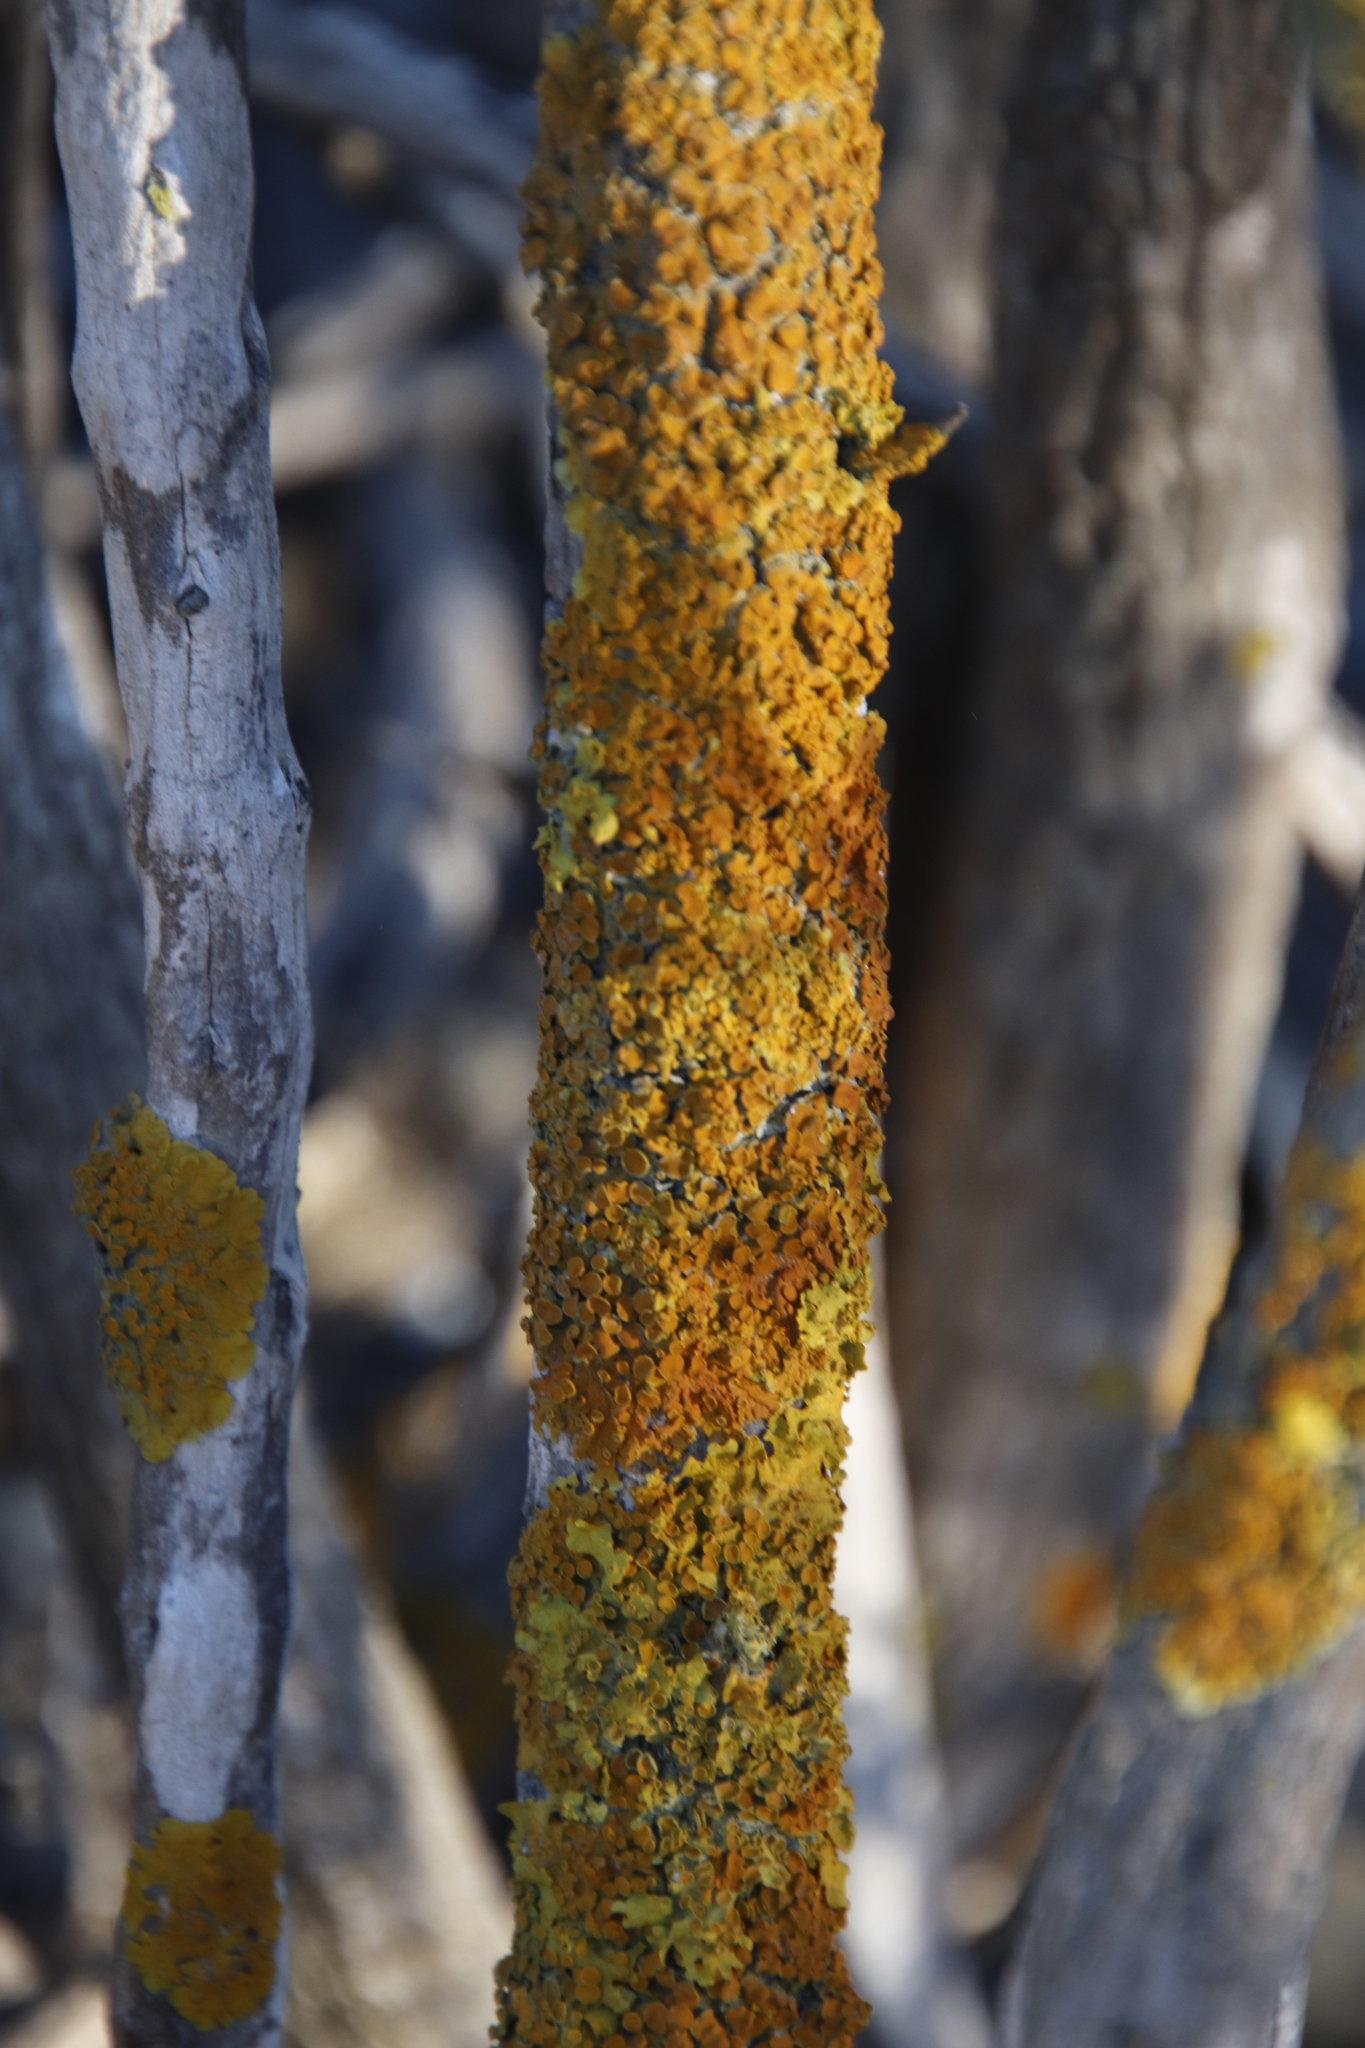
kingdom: Fungi
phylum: Ascomycota
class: Lecanoromycetes
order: Teloschistales
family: Teloschistaceae
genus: Xanthoria
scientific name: Xanthoria parietina
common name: Common orange lichen
